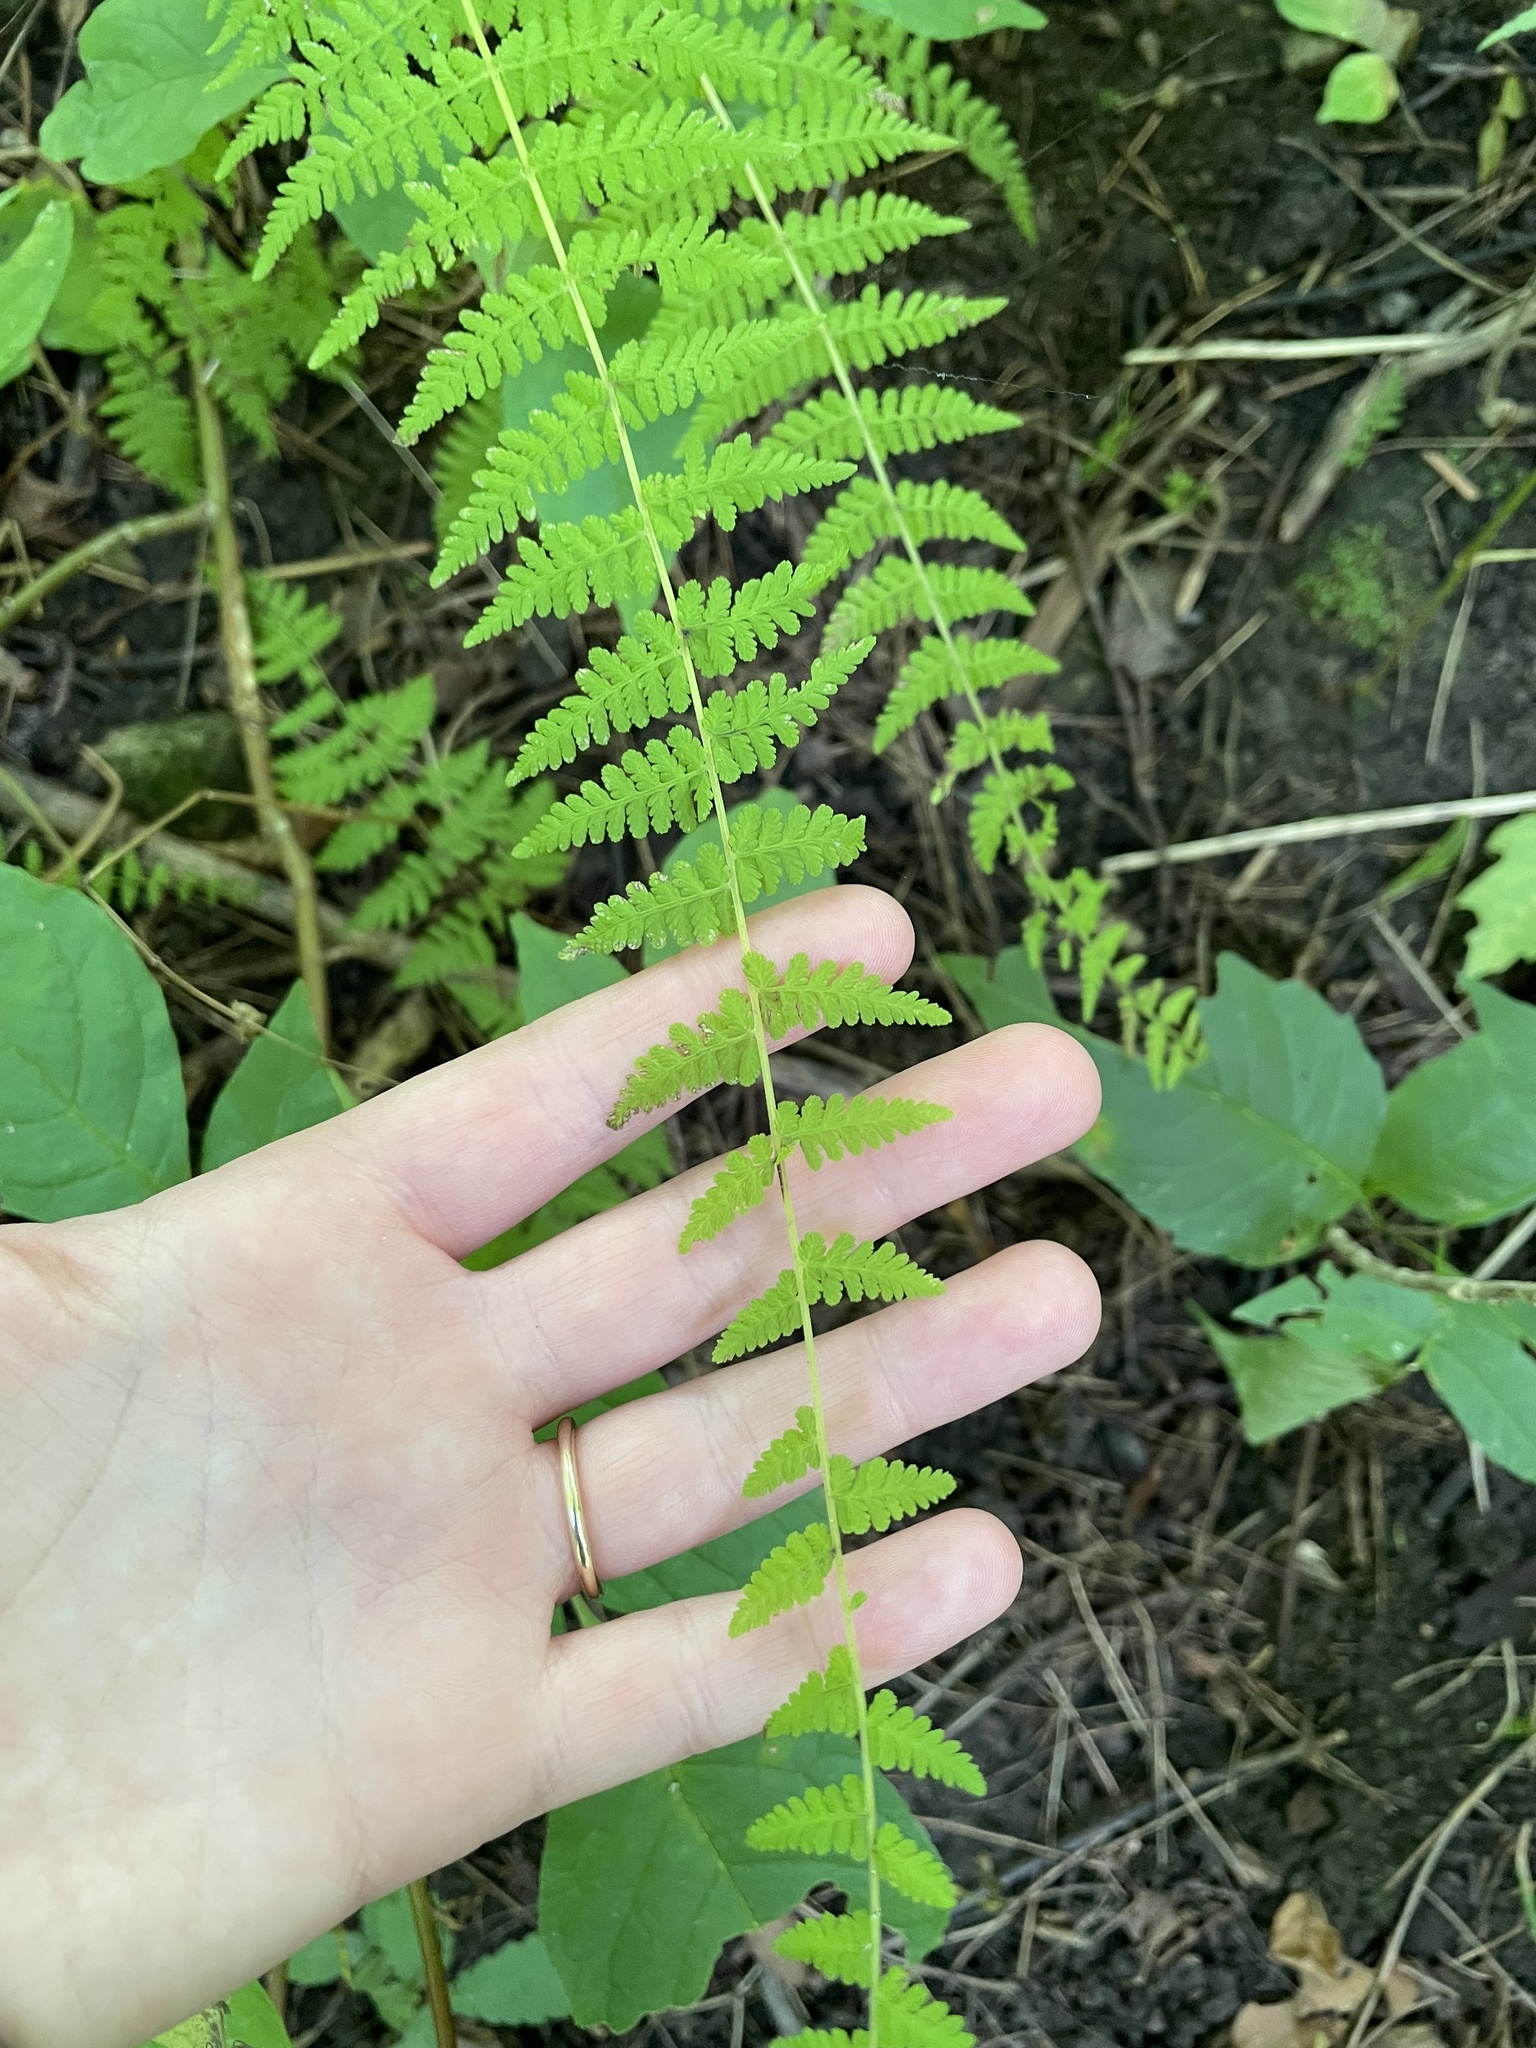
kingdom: Plantae
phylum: Tracheophyta
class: Polypodiopsida
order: Polypodiales
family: Cystopteridaceae
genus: Cystopteris
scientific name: Cystopteris bulbifera
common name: Bulblet bladder fern
